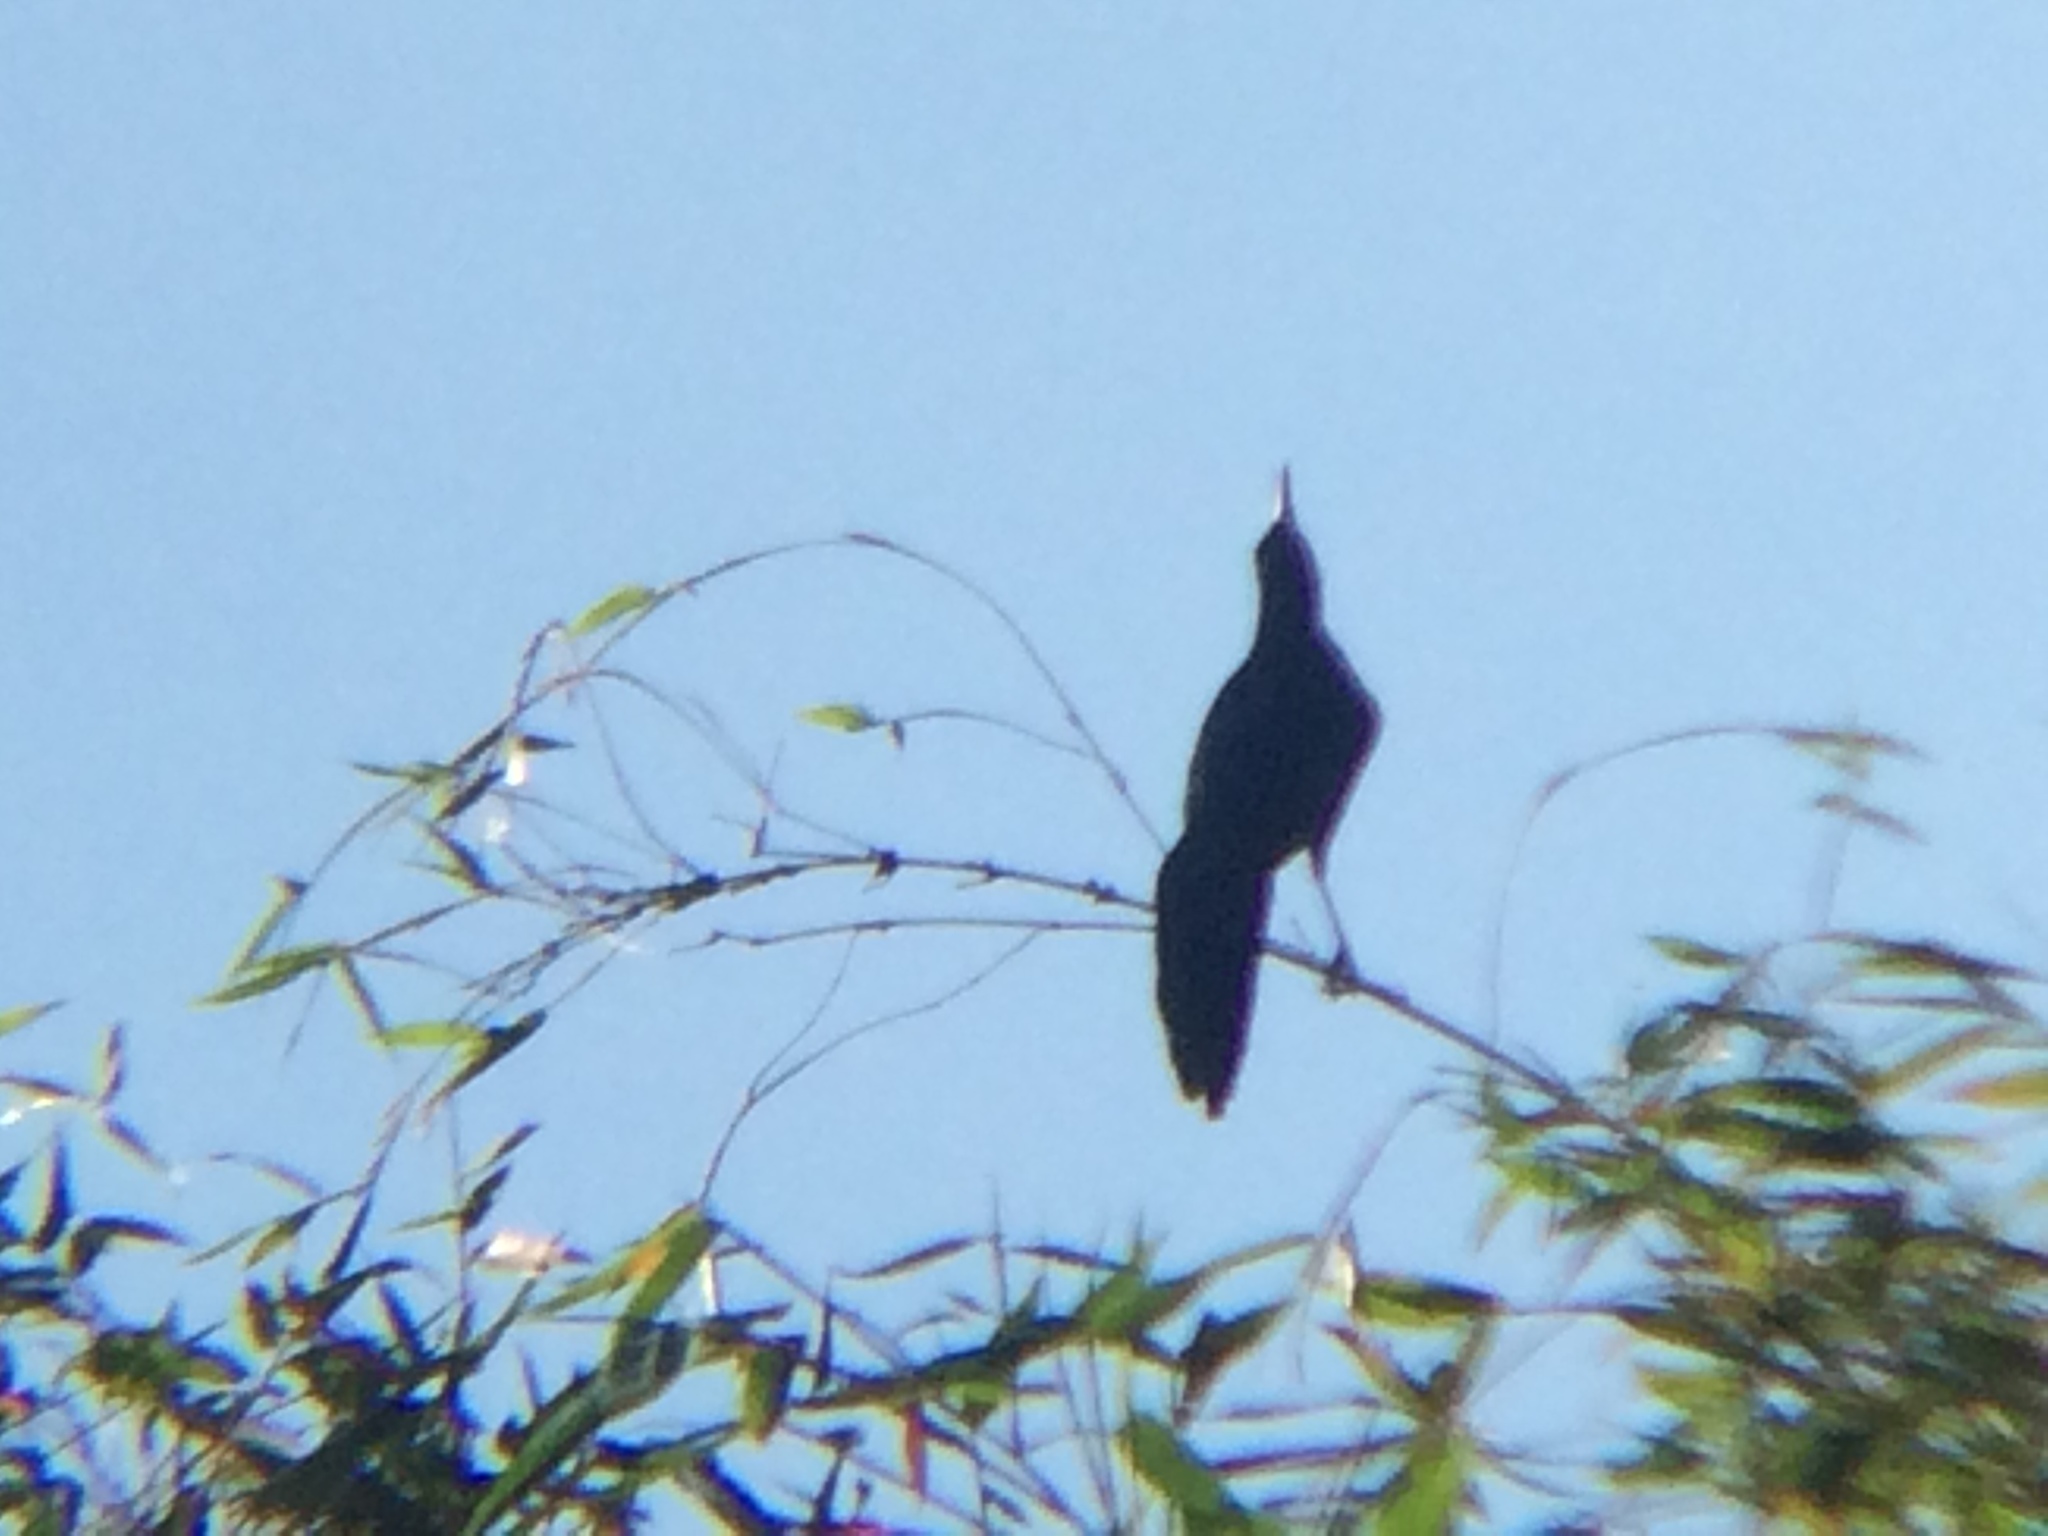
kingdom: Animalia
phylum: Chordata
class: Aves
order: Passeriformes
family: Icteridae
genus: Quiscalus
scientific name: Quiscalus mexicanus
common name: Great-tailed grackle
